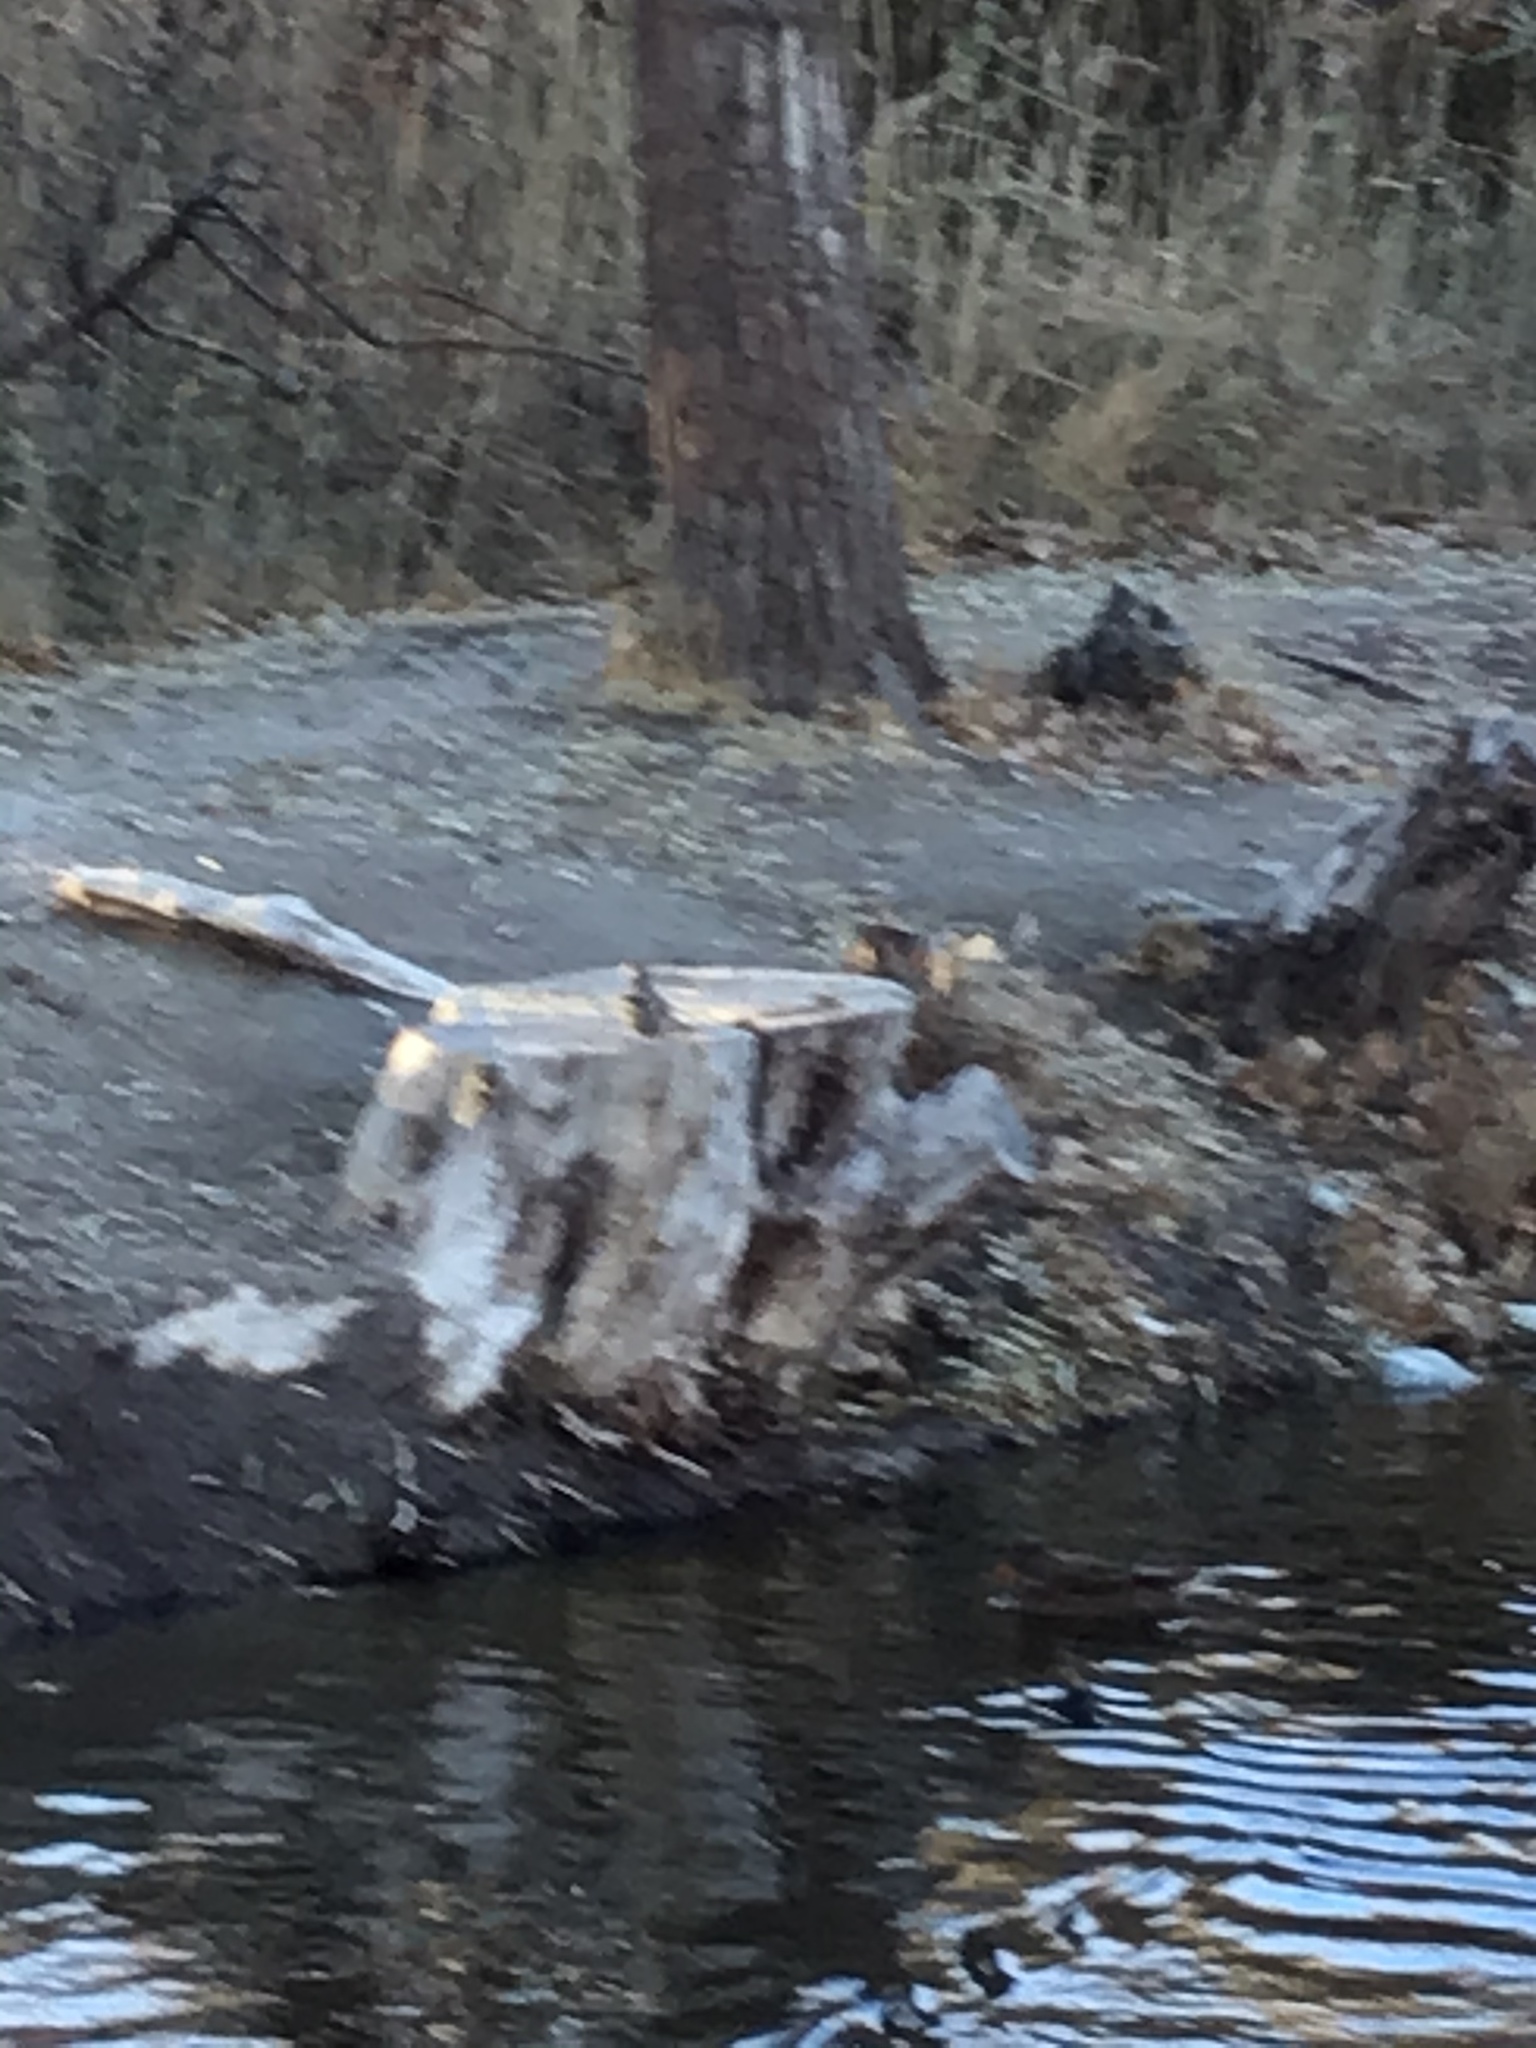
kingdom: Animalia
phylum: Chordata
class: Aves
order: Piciformes
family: Picidae
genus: Colaptes
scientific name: Colaptes auratus
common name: Northern flicker
